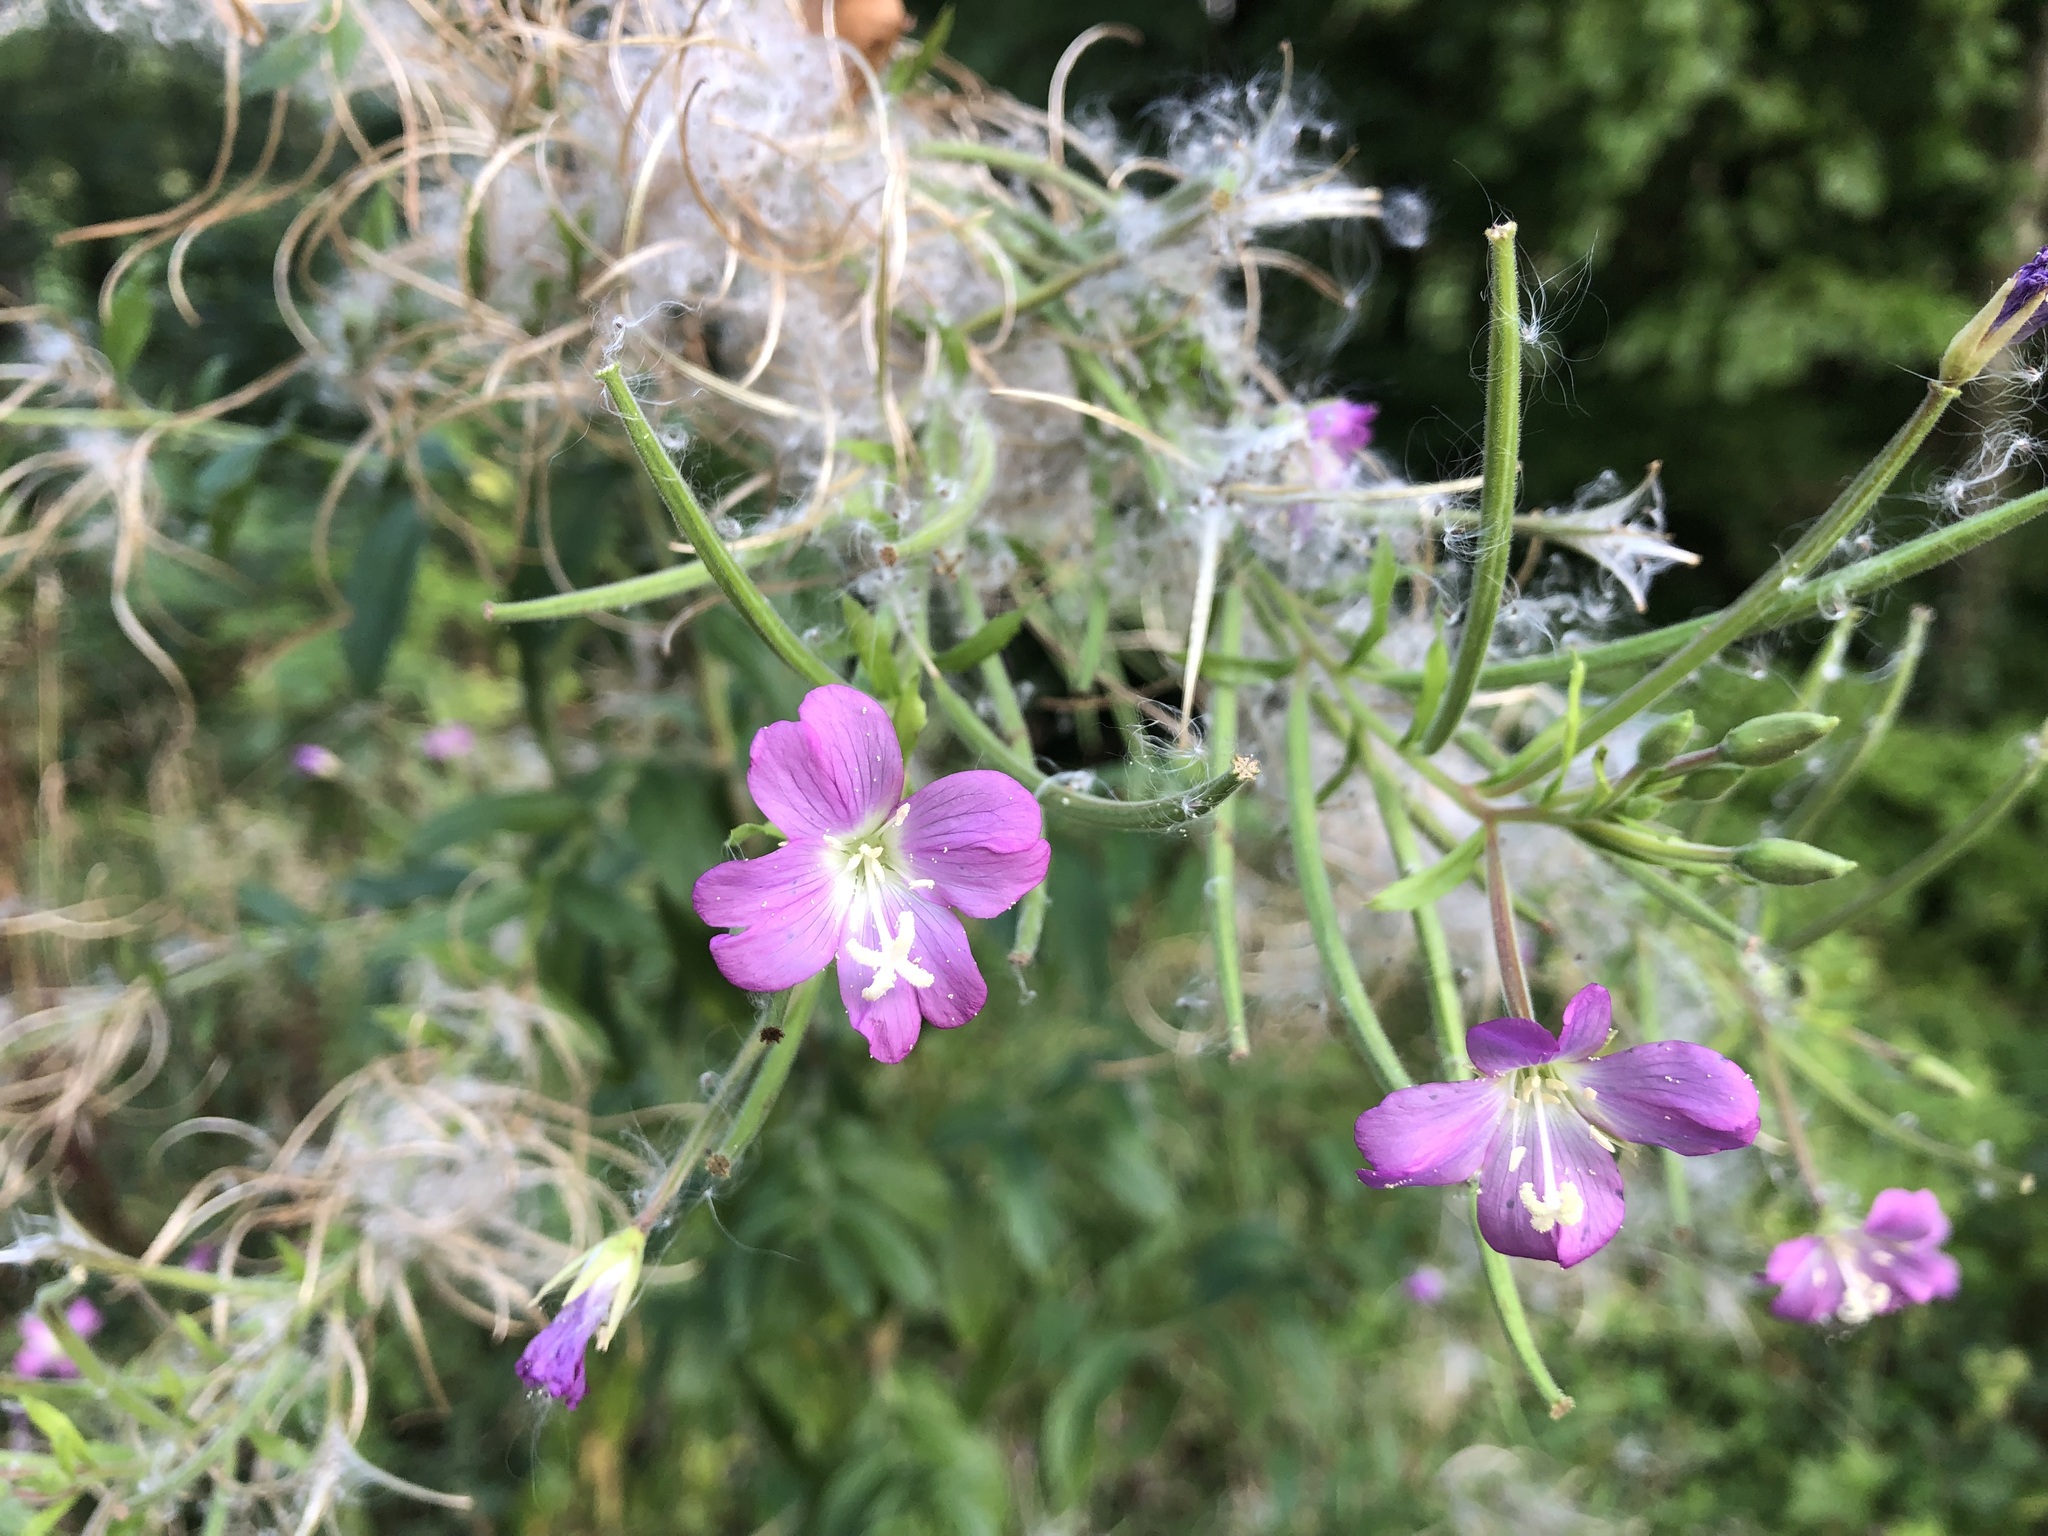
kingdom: Plantae
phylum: Tracheophyta
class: Magnoliopsida
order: Myrtales
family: Onagraceae
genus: Epilobium
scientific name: Epilobium hirsutum
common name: Great willowherb
